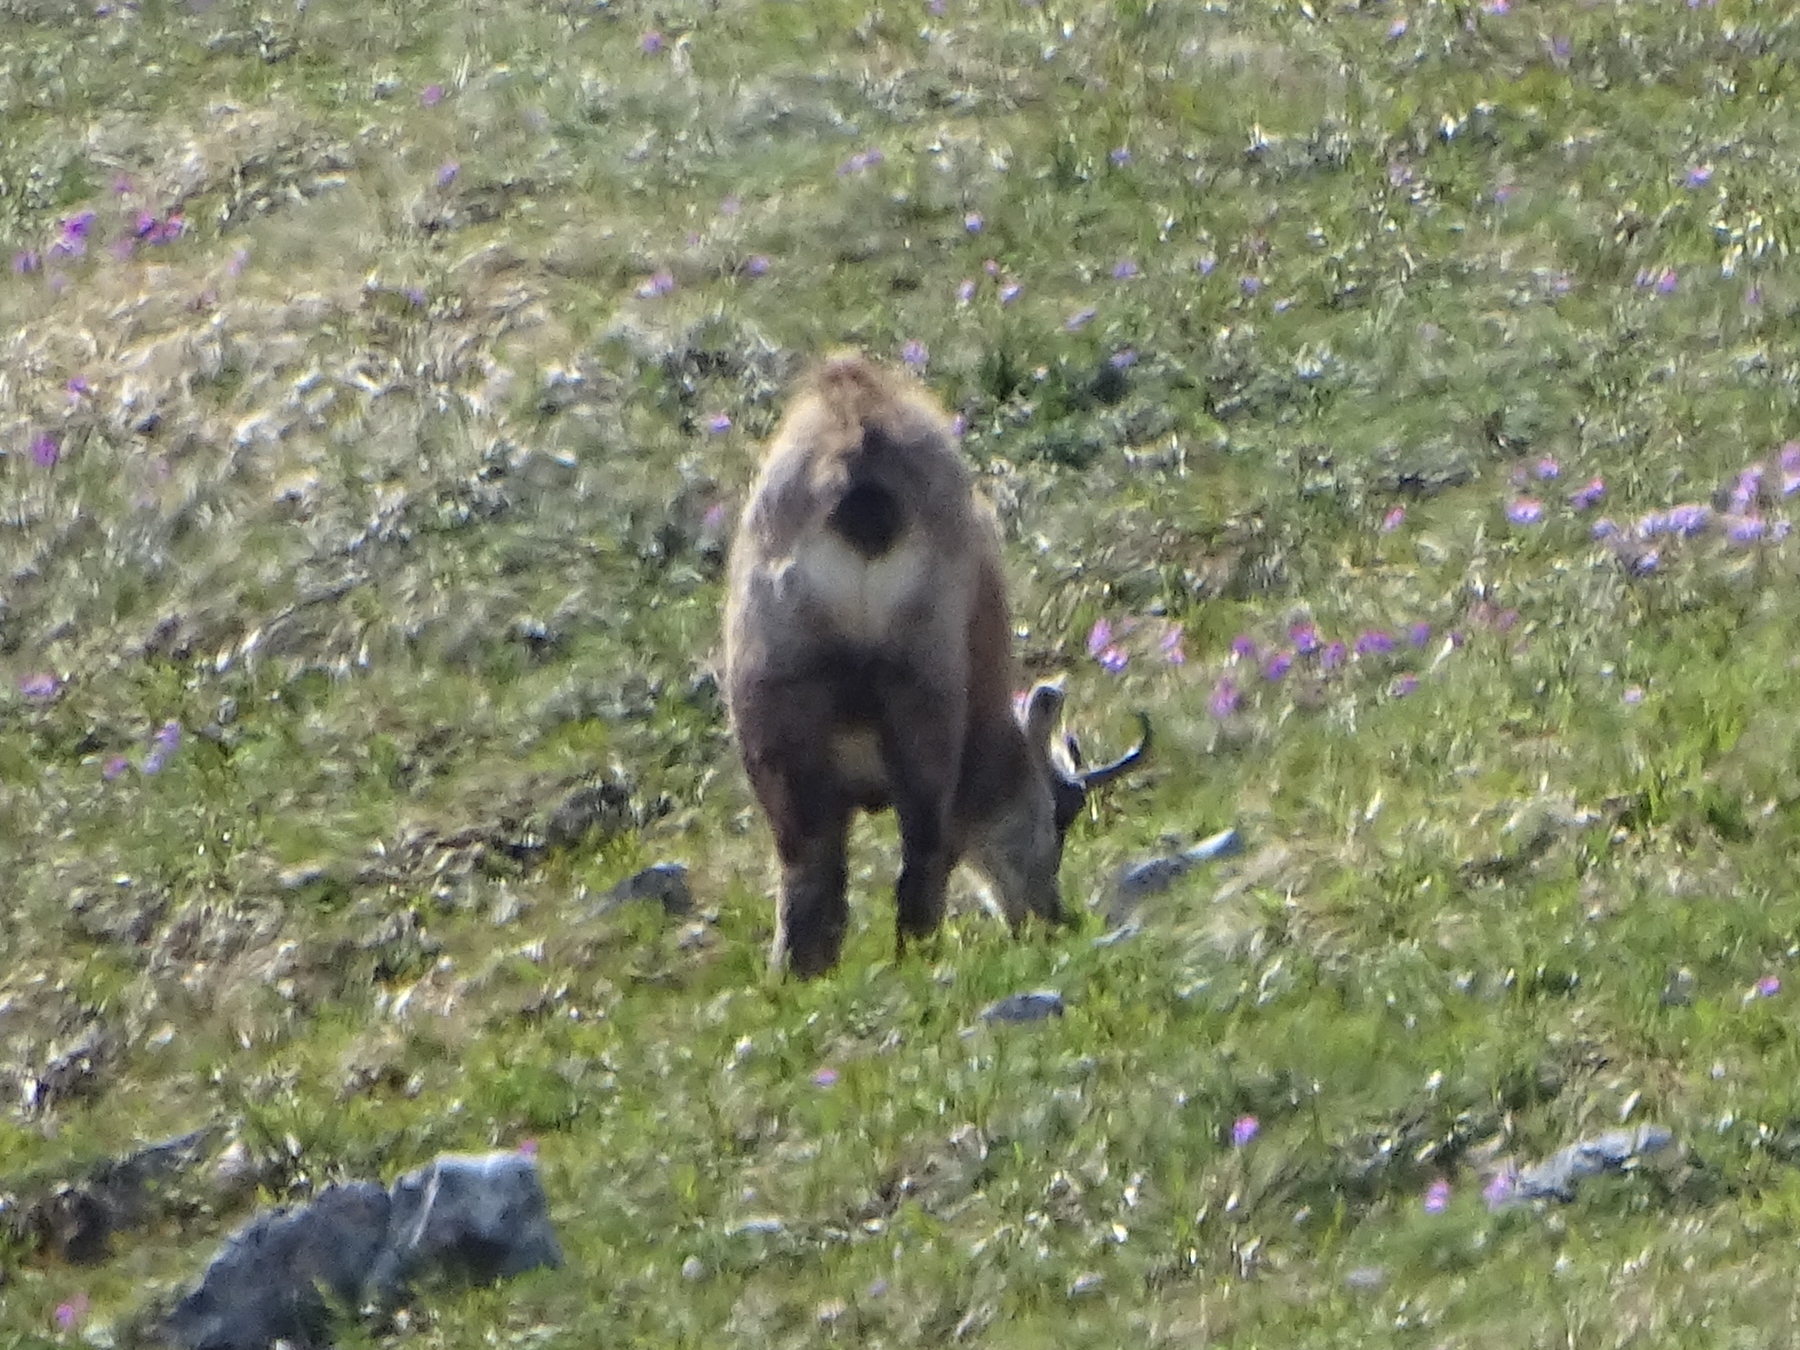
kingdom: Animalia
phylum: Chordata
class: Mammalia
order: Artiodactyla
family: Bovidae
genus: Rupicapra
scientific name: Rupicapra rupicapra
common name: Chamois
